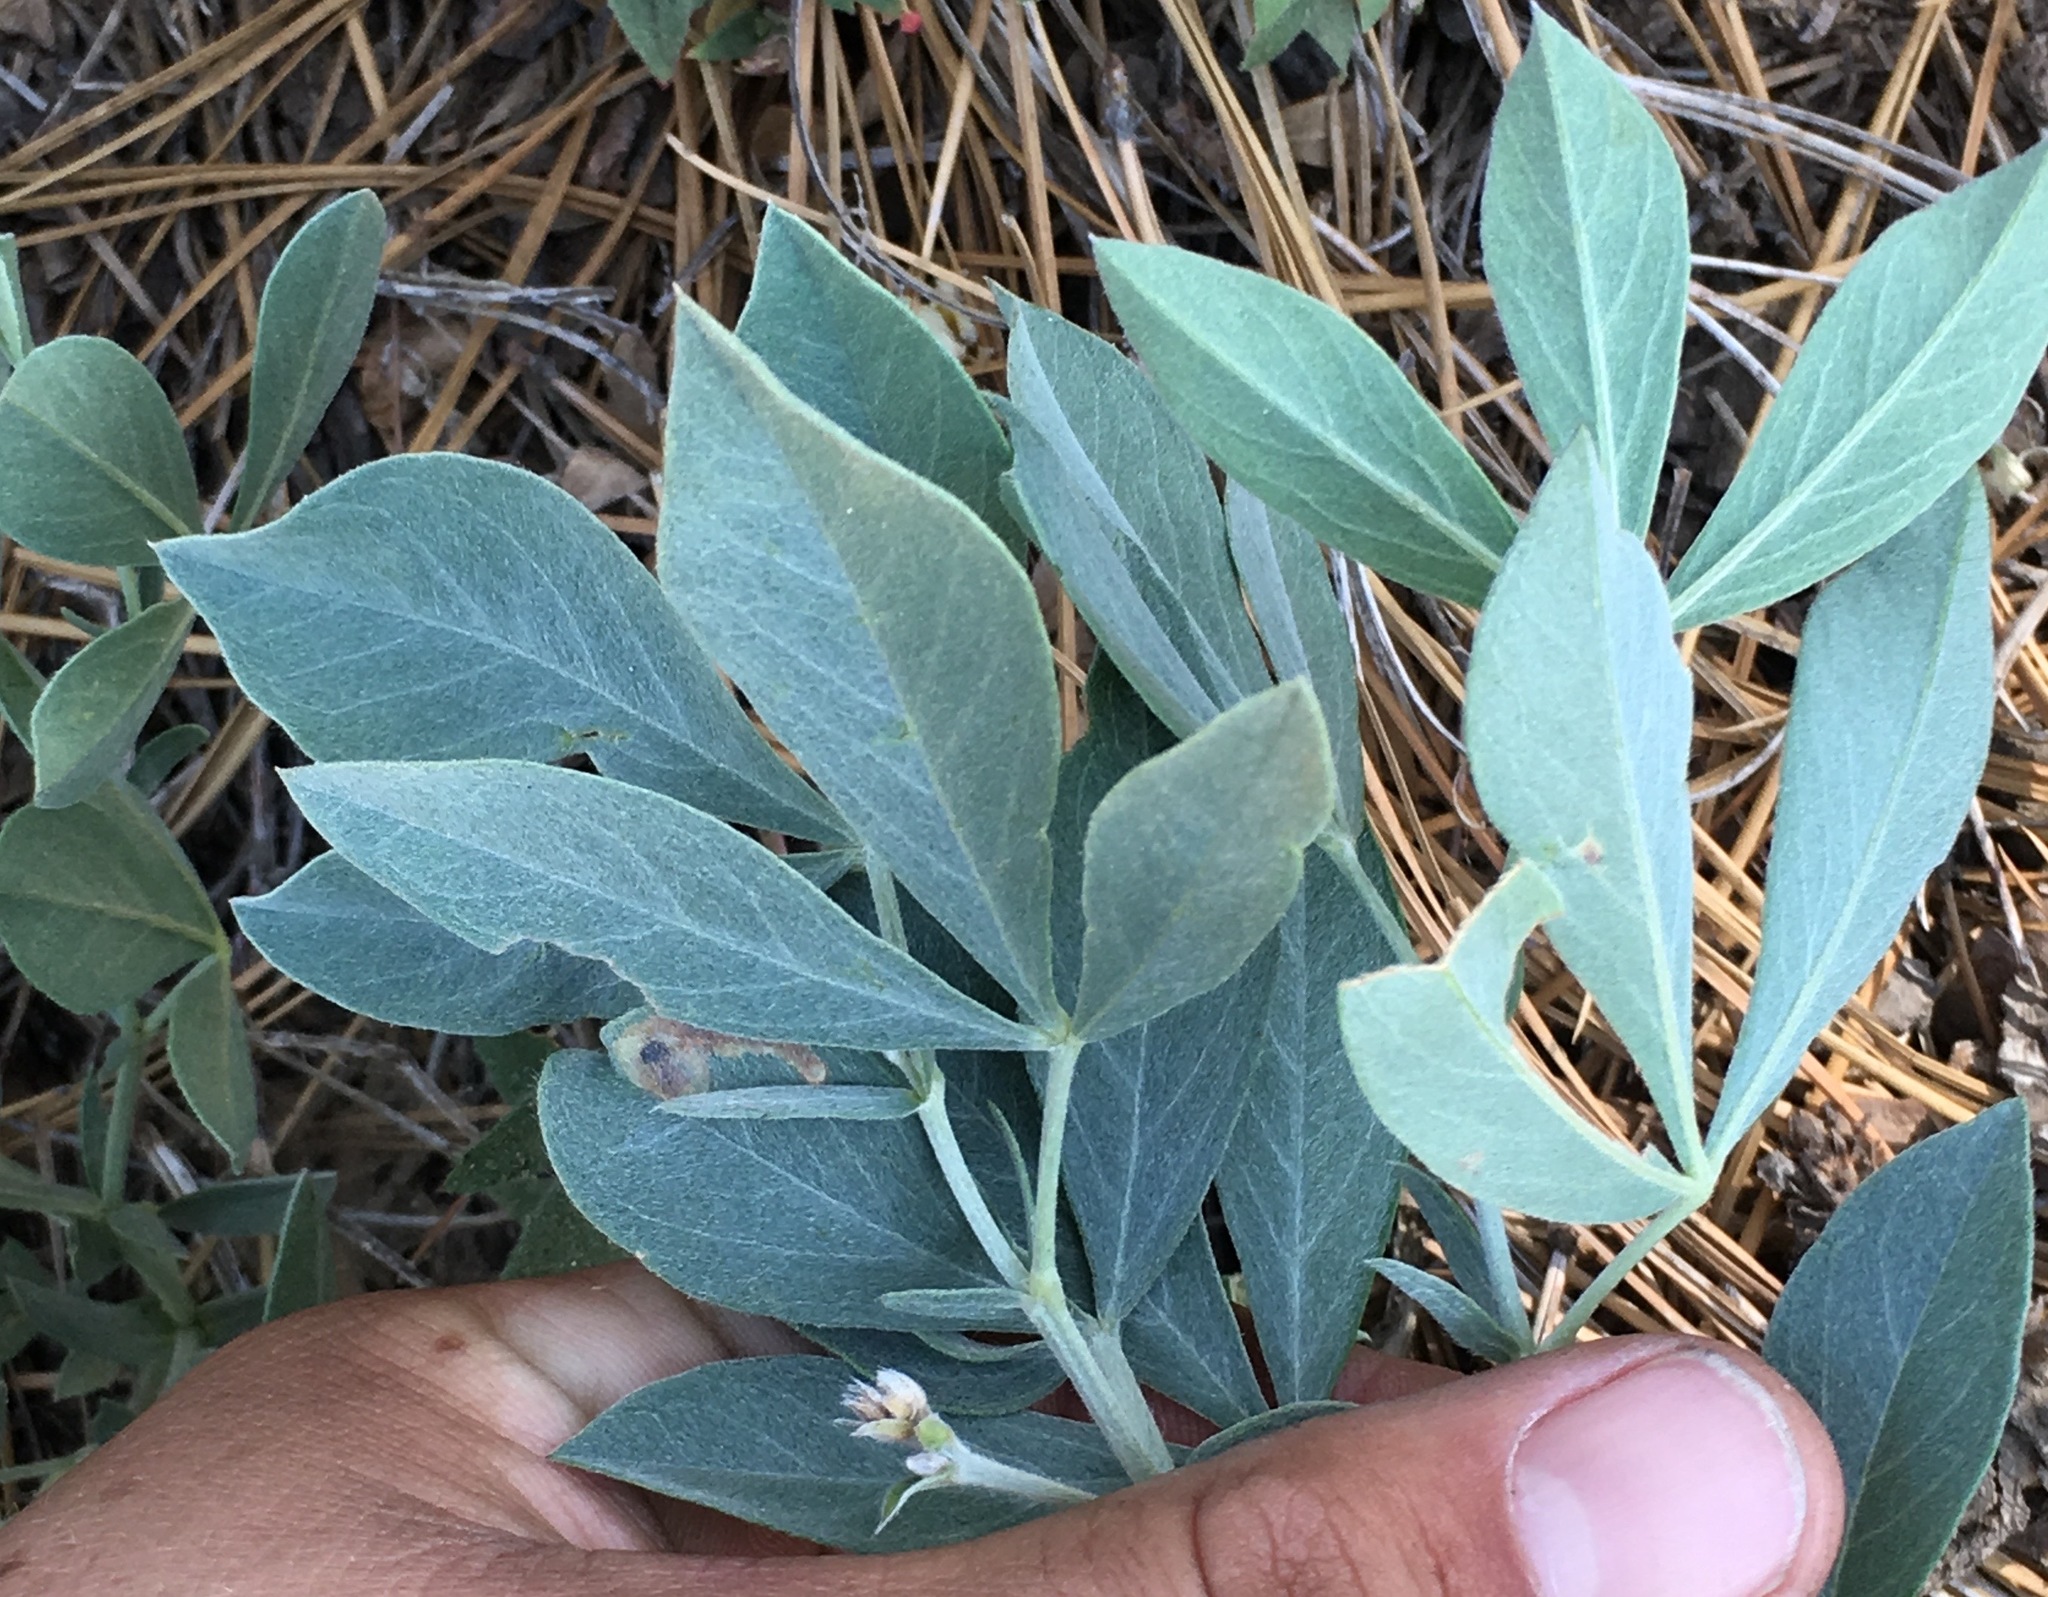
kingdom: Plantae
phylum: Tracheophyta
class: Magnoliopsida
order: Fabales
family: Fabaceae
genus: Thermopsis
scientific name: Thermopsis californica
